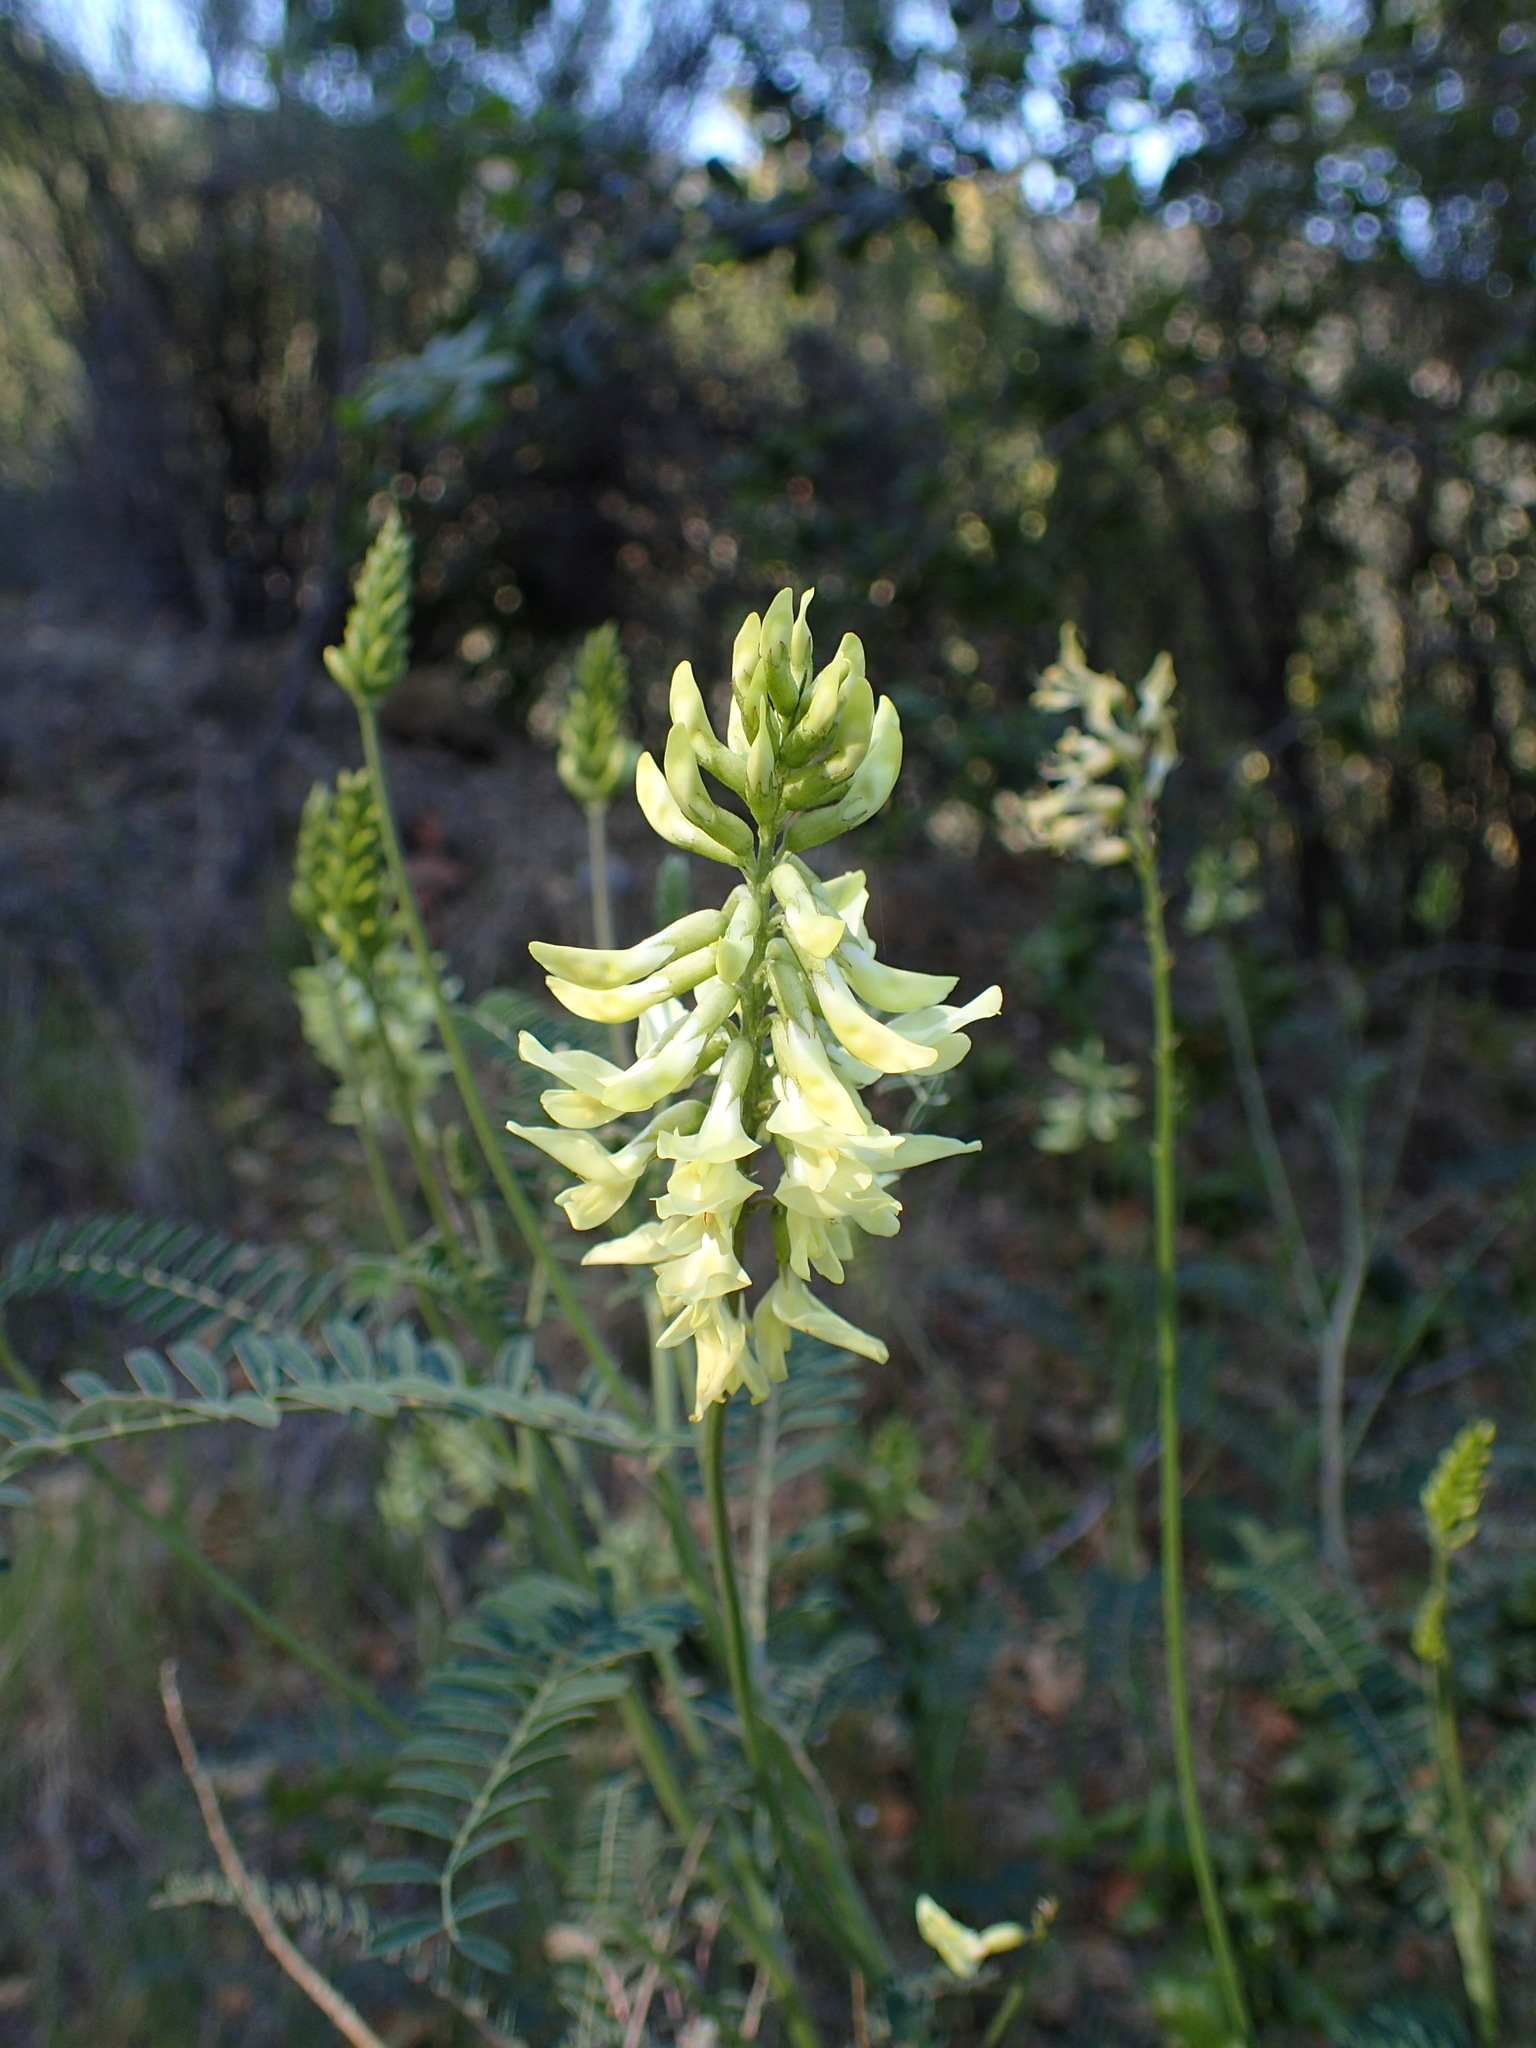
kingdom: Plantae
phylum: Tracheophyta
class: Magnoliopsida
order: Fabales
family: Fabaceae
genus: Astragalus
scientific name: Astragalus trichopodus
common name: Santa barbara milk-vetch
